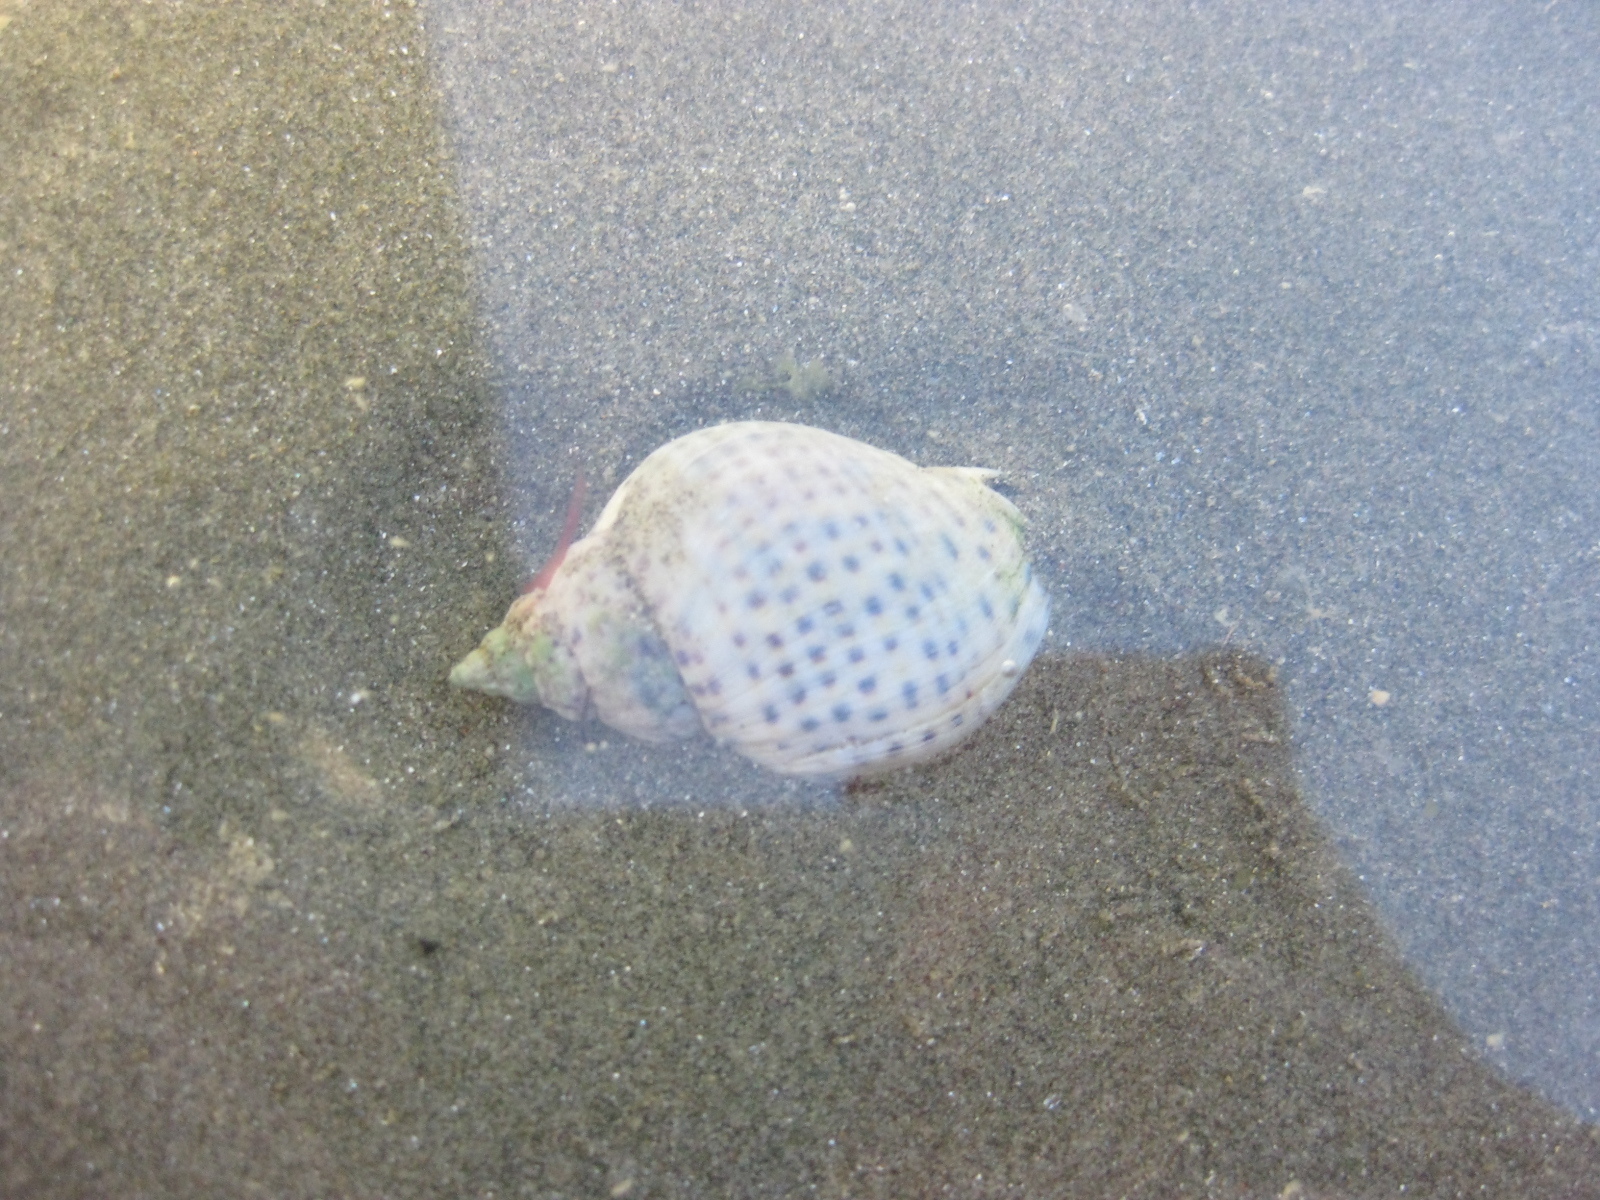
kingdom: Animalia
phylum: Mollusca
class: Gastropoda
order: Neogastropoda
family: Cominellidae
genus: Cominella
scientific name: Cominella adspersa
